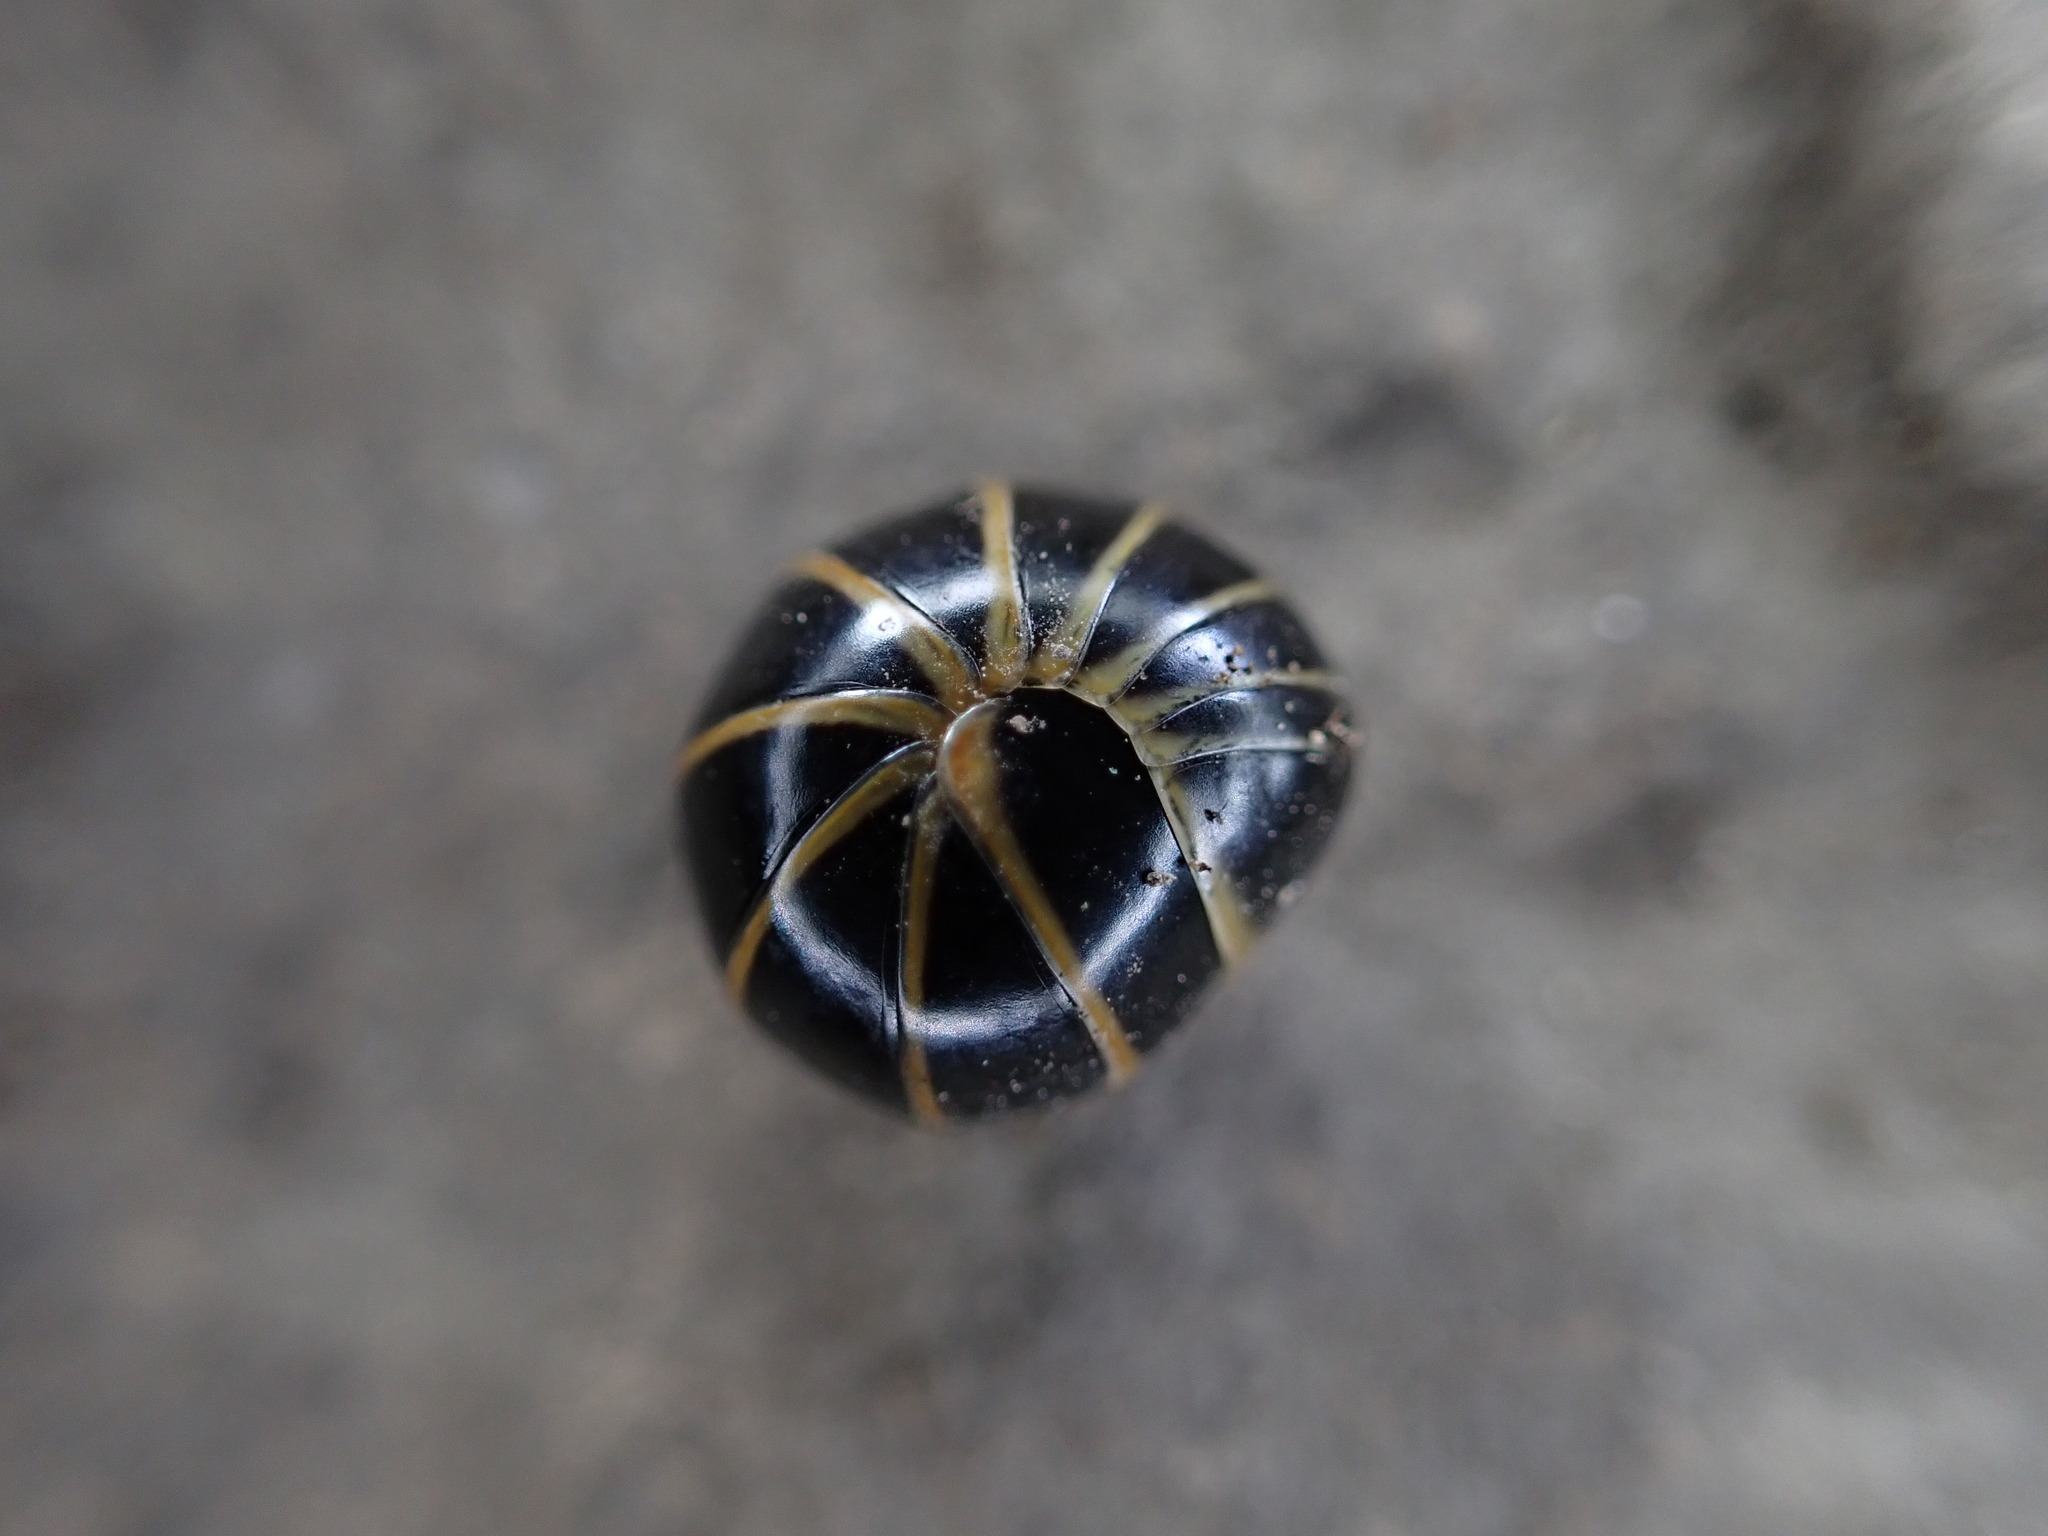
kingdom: Animalia
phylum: Arthropoda
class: Diplopoda
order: Glomerida
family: Glomeridae
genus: Glomeris
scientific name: Glomeris marginata
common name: Bordered pill millipede
